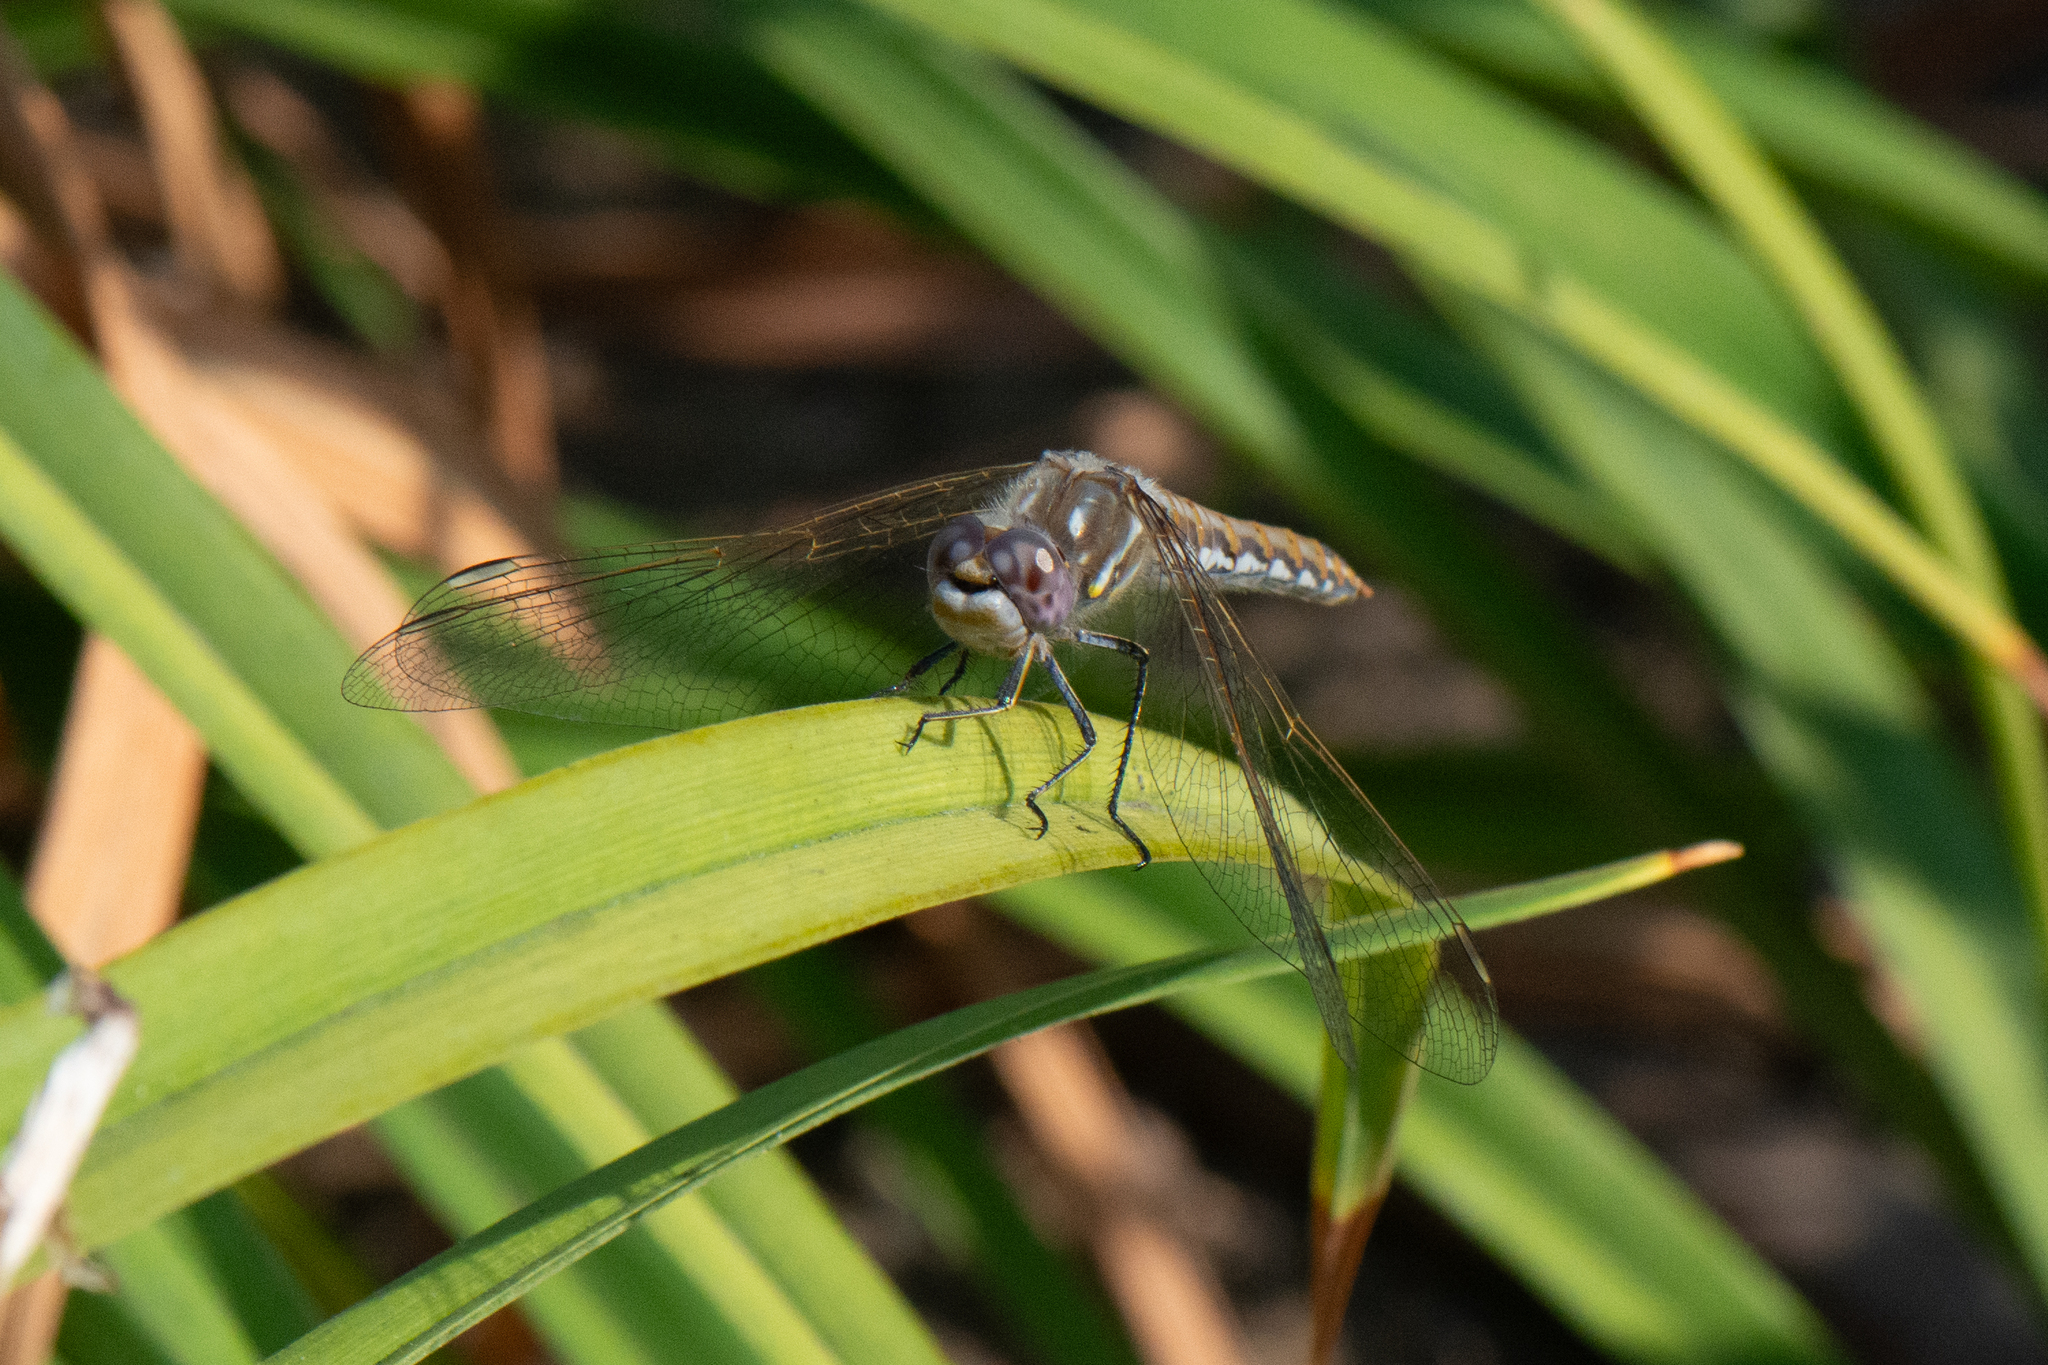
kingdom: Animalia
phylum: Arthropoda
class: Insecta
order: Odonata
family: Libellulidae
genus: Sympetrum
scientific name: Sympetrum corruptum
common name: Variegated meadowhawk
